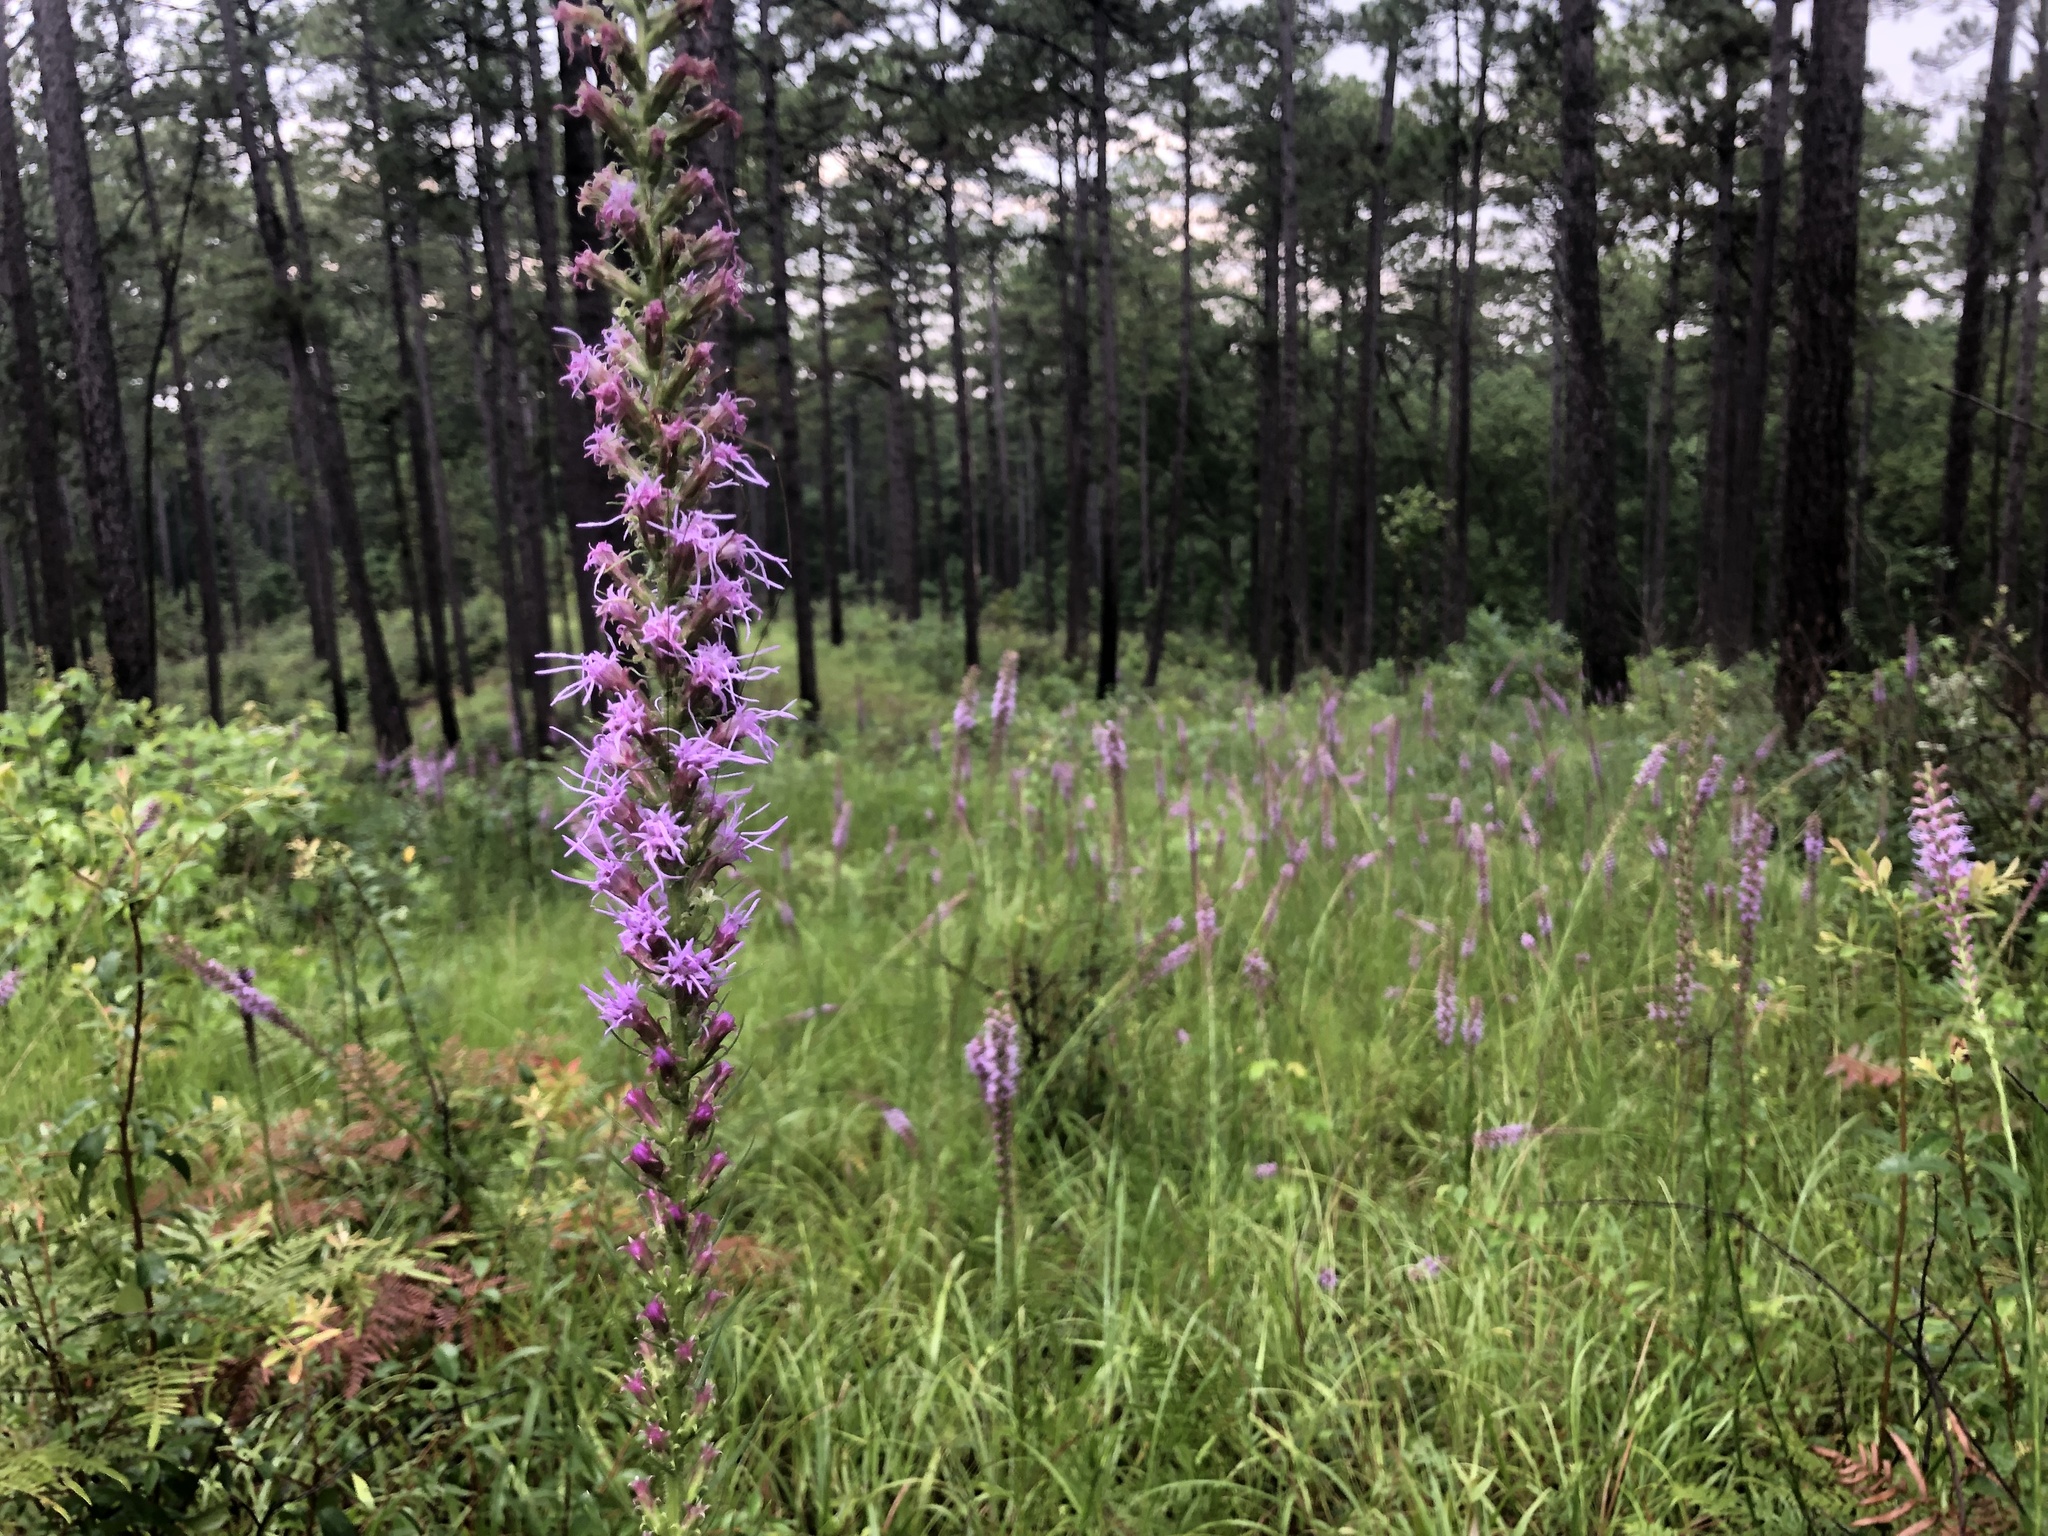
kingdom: Plantae
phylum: Tracheophyta
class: Magnoliopsida
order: Asterales
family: Asteraceae
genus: Liatris
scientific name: Liatris pycnostachya
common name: Cattail gayfeather
